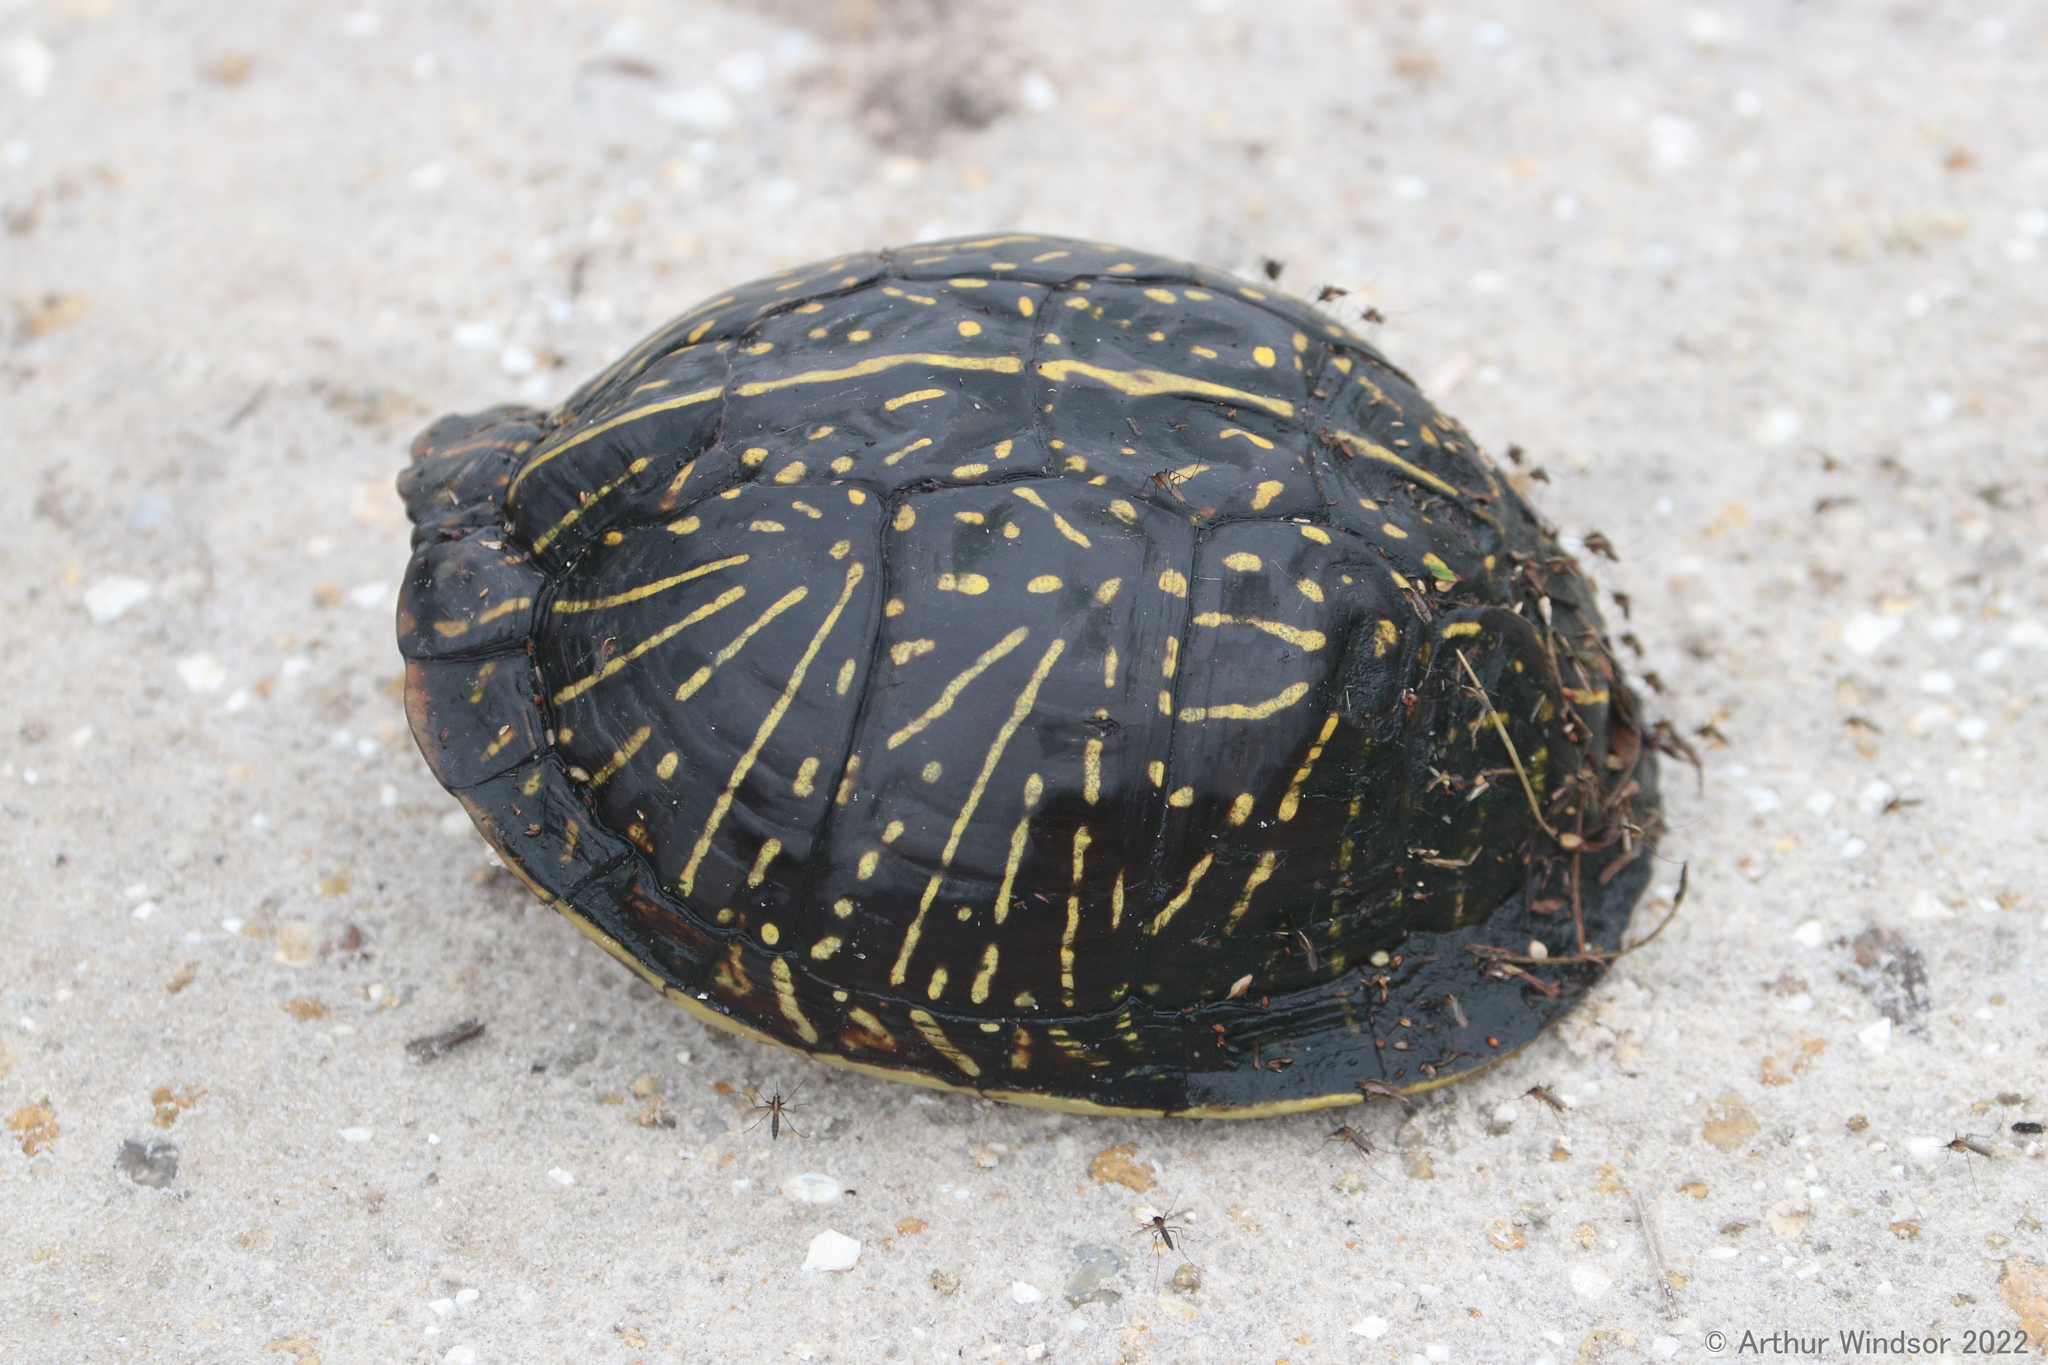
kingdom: Animalia
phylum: Chordata
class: Testudines
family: Emydidae
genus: Terrapene
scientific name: Terrapene carolina
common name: Common box turtle
